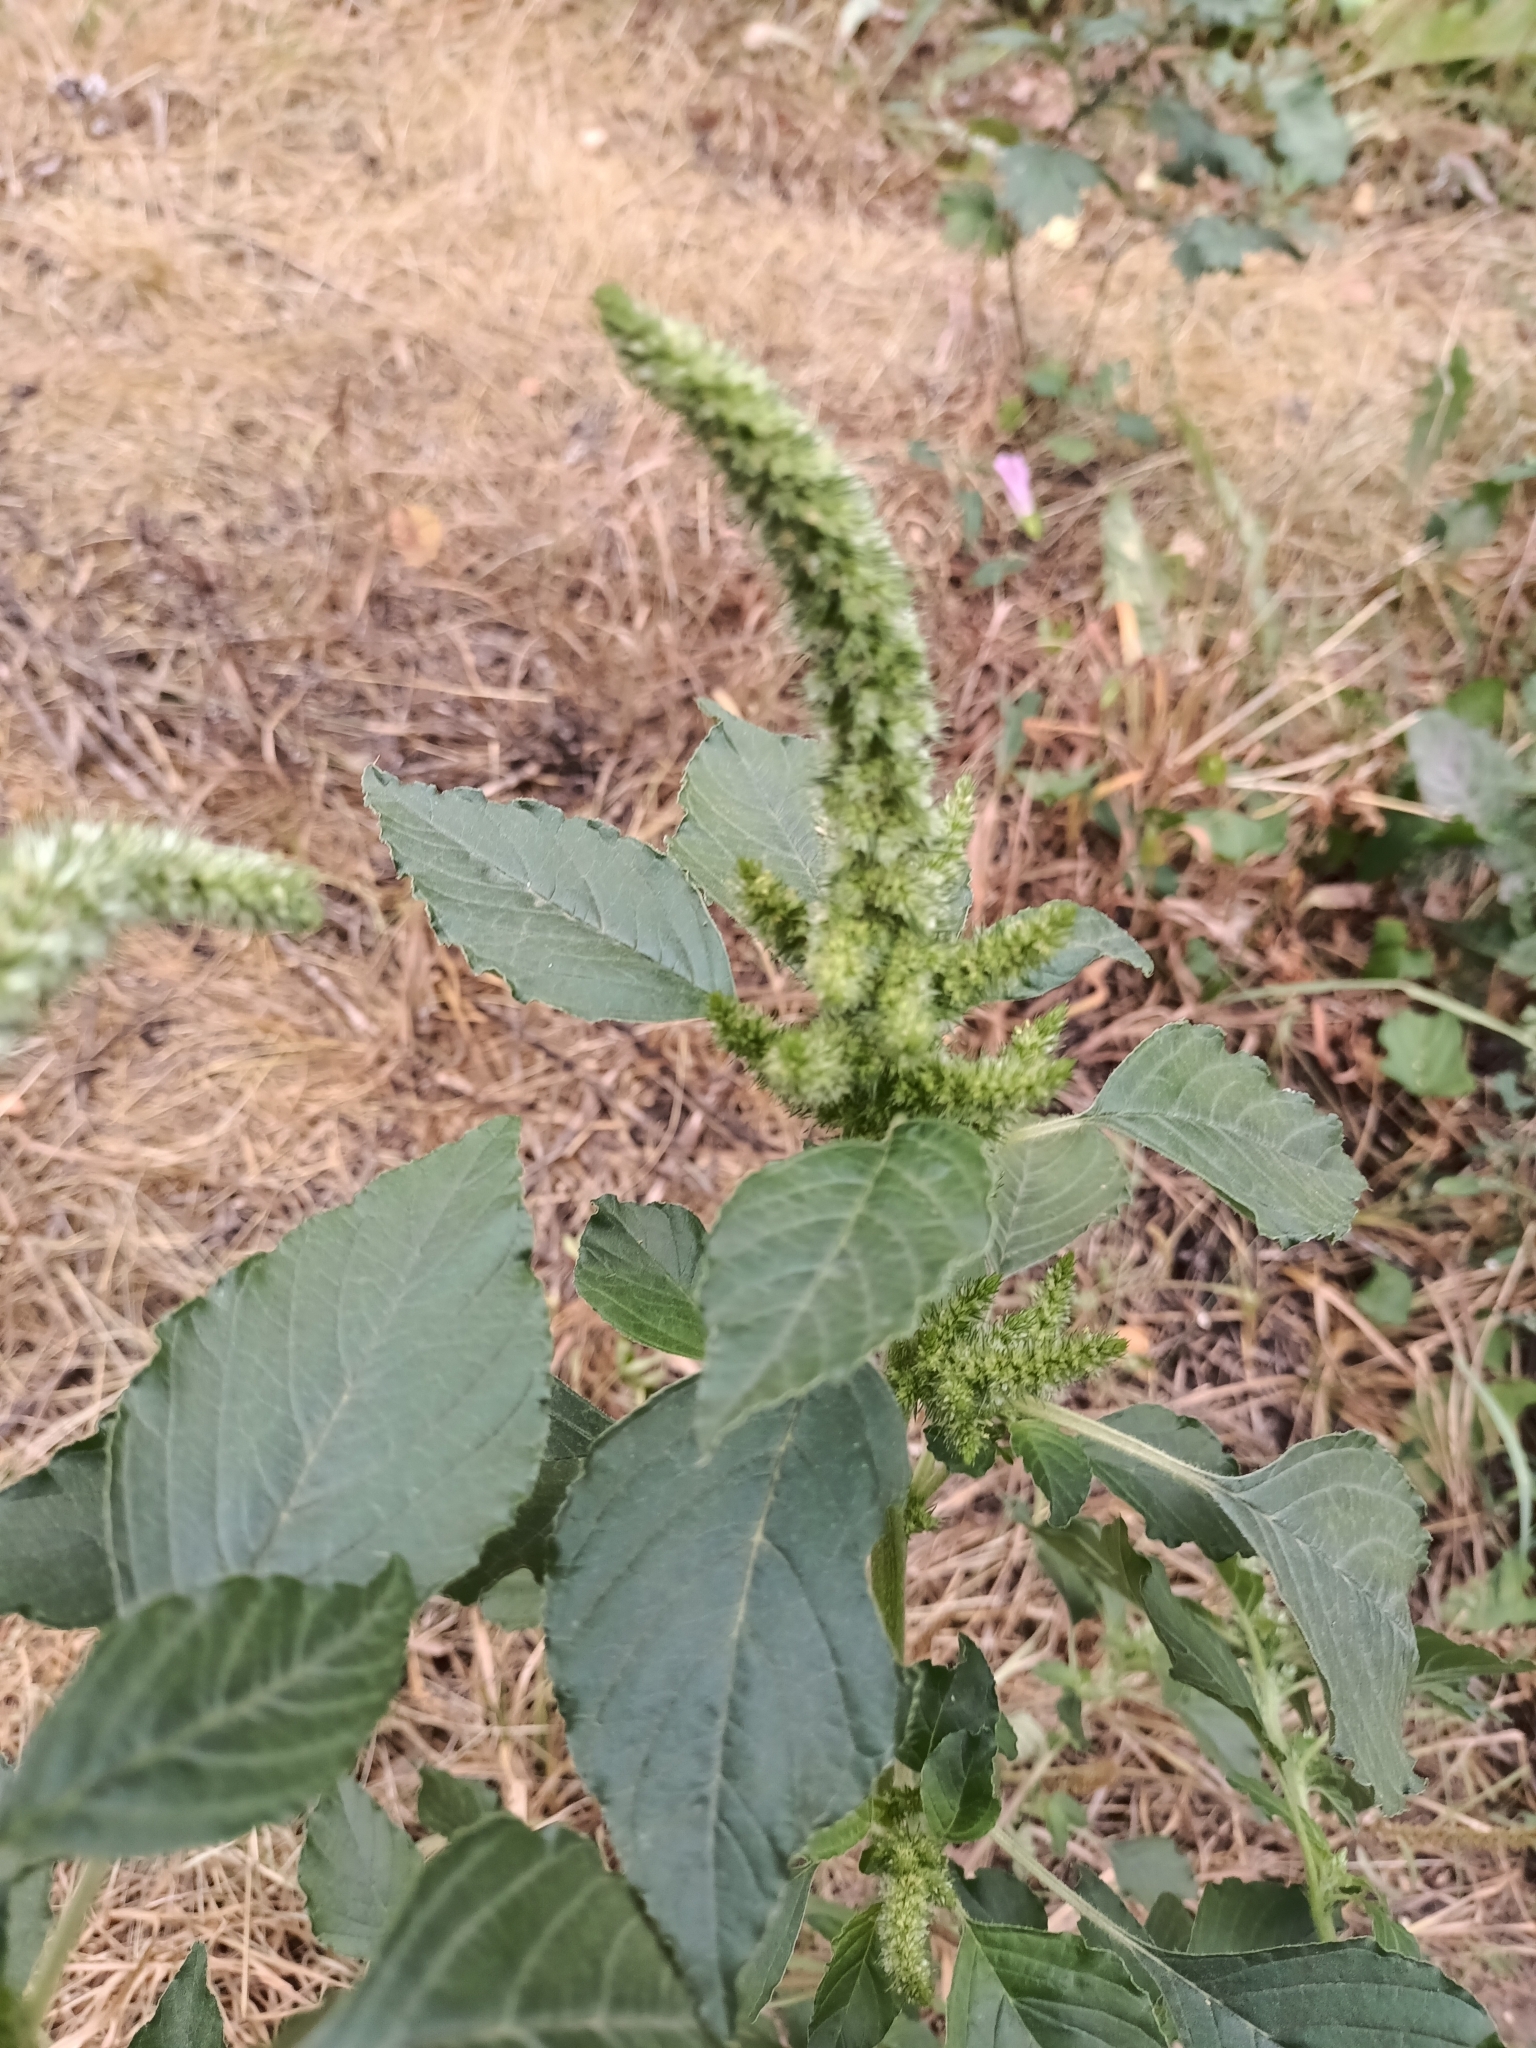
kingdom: Plantae
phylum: Tracheophyta
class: Magnoliopsida
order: Caryophyllales
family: Amaranthaceae
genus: Amaranthus
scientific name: Amaranthus retroflexus
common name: Redroot amaranth
